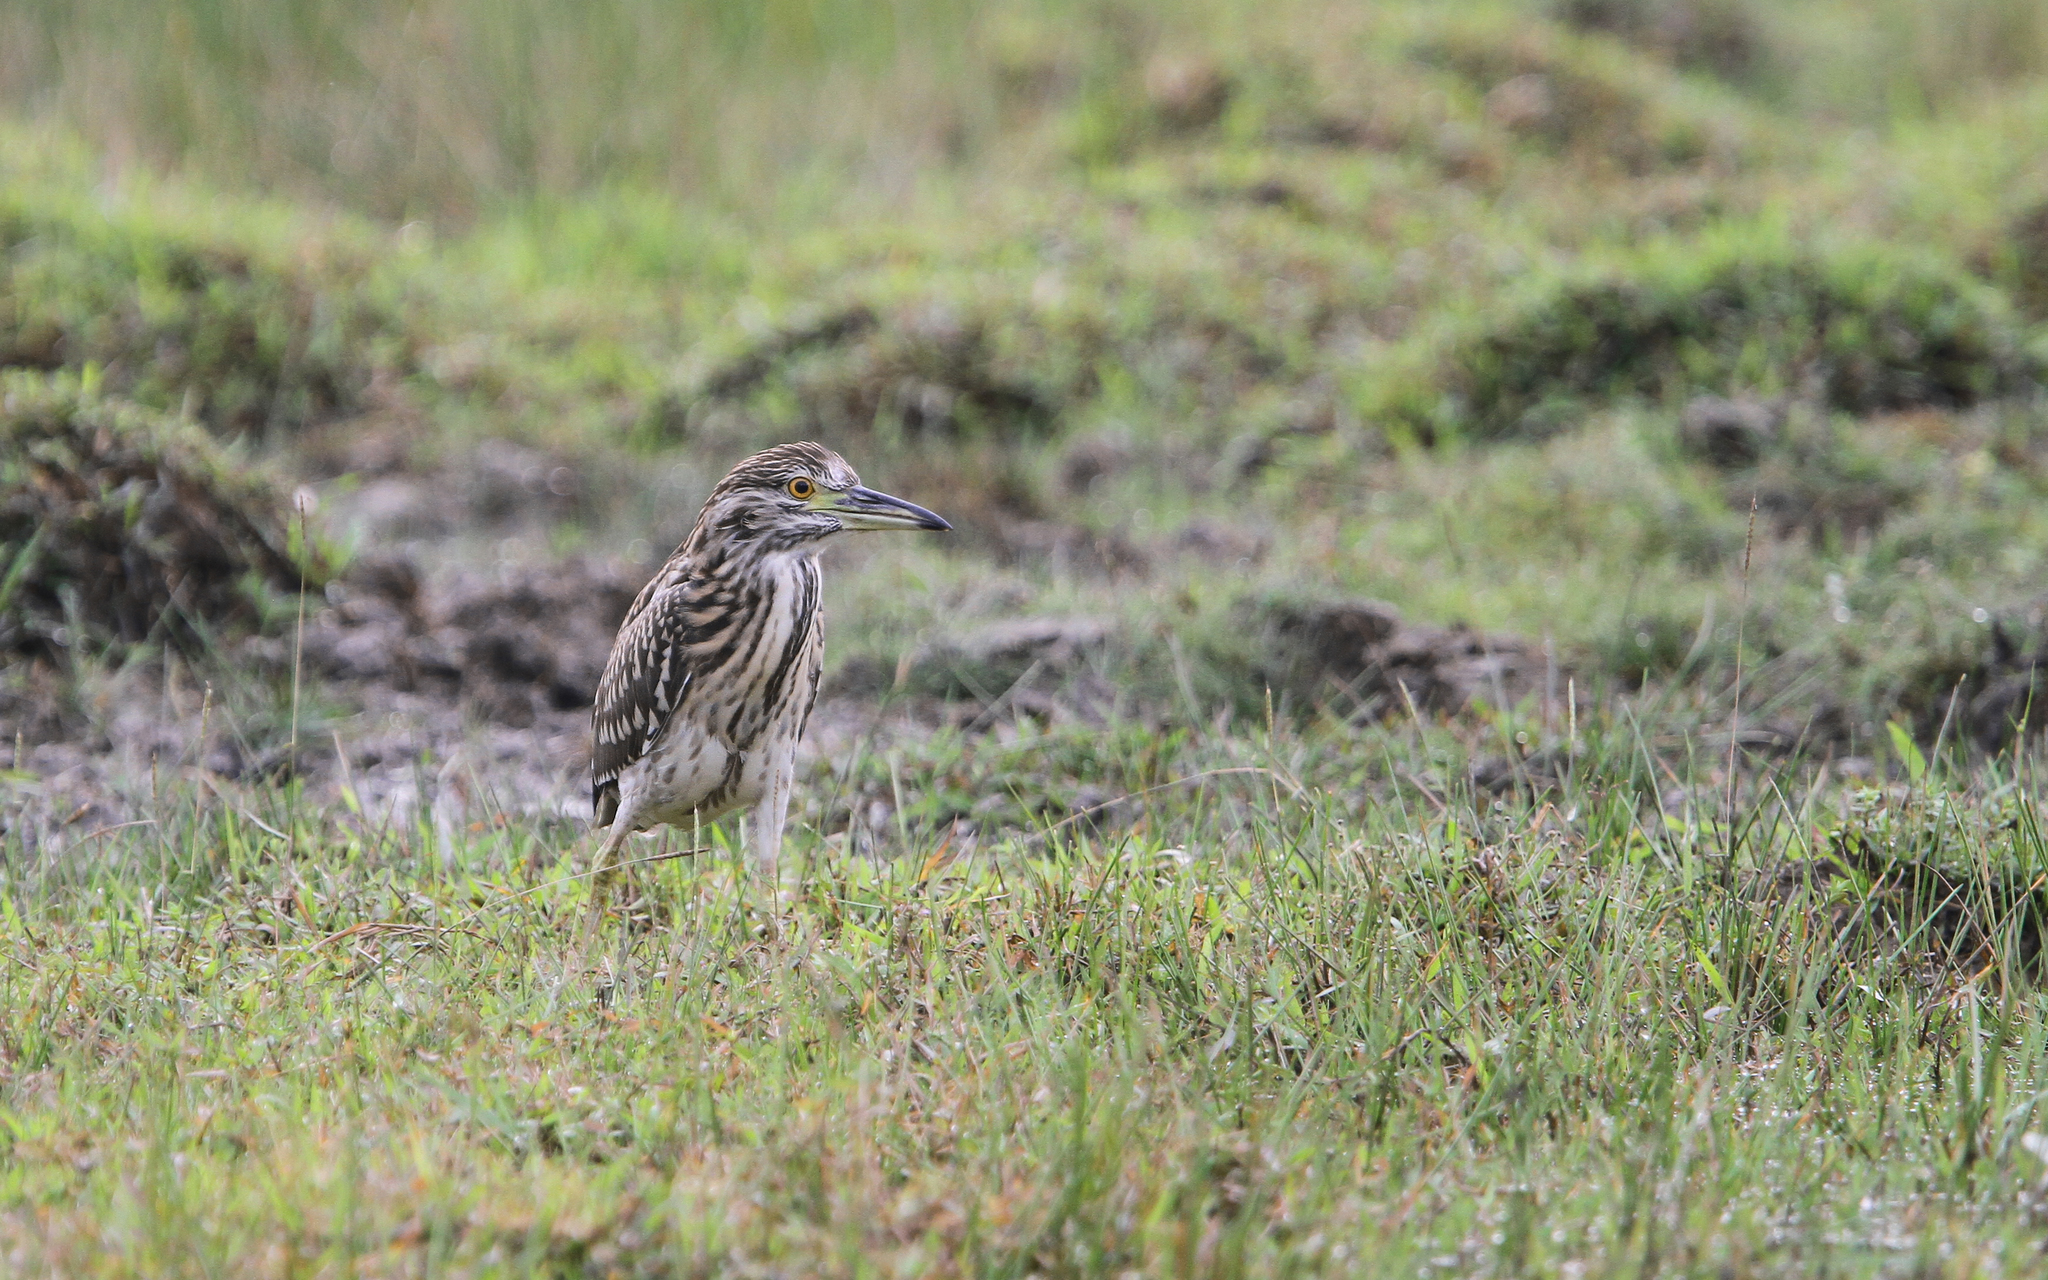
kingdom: Animalia
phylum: Chordata
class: Aves
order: Pelecaniformes
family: Ardeidae
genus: Nycticorax
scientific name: Nycticorax nycticorax
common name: Black-crowned night heron
